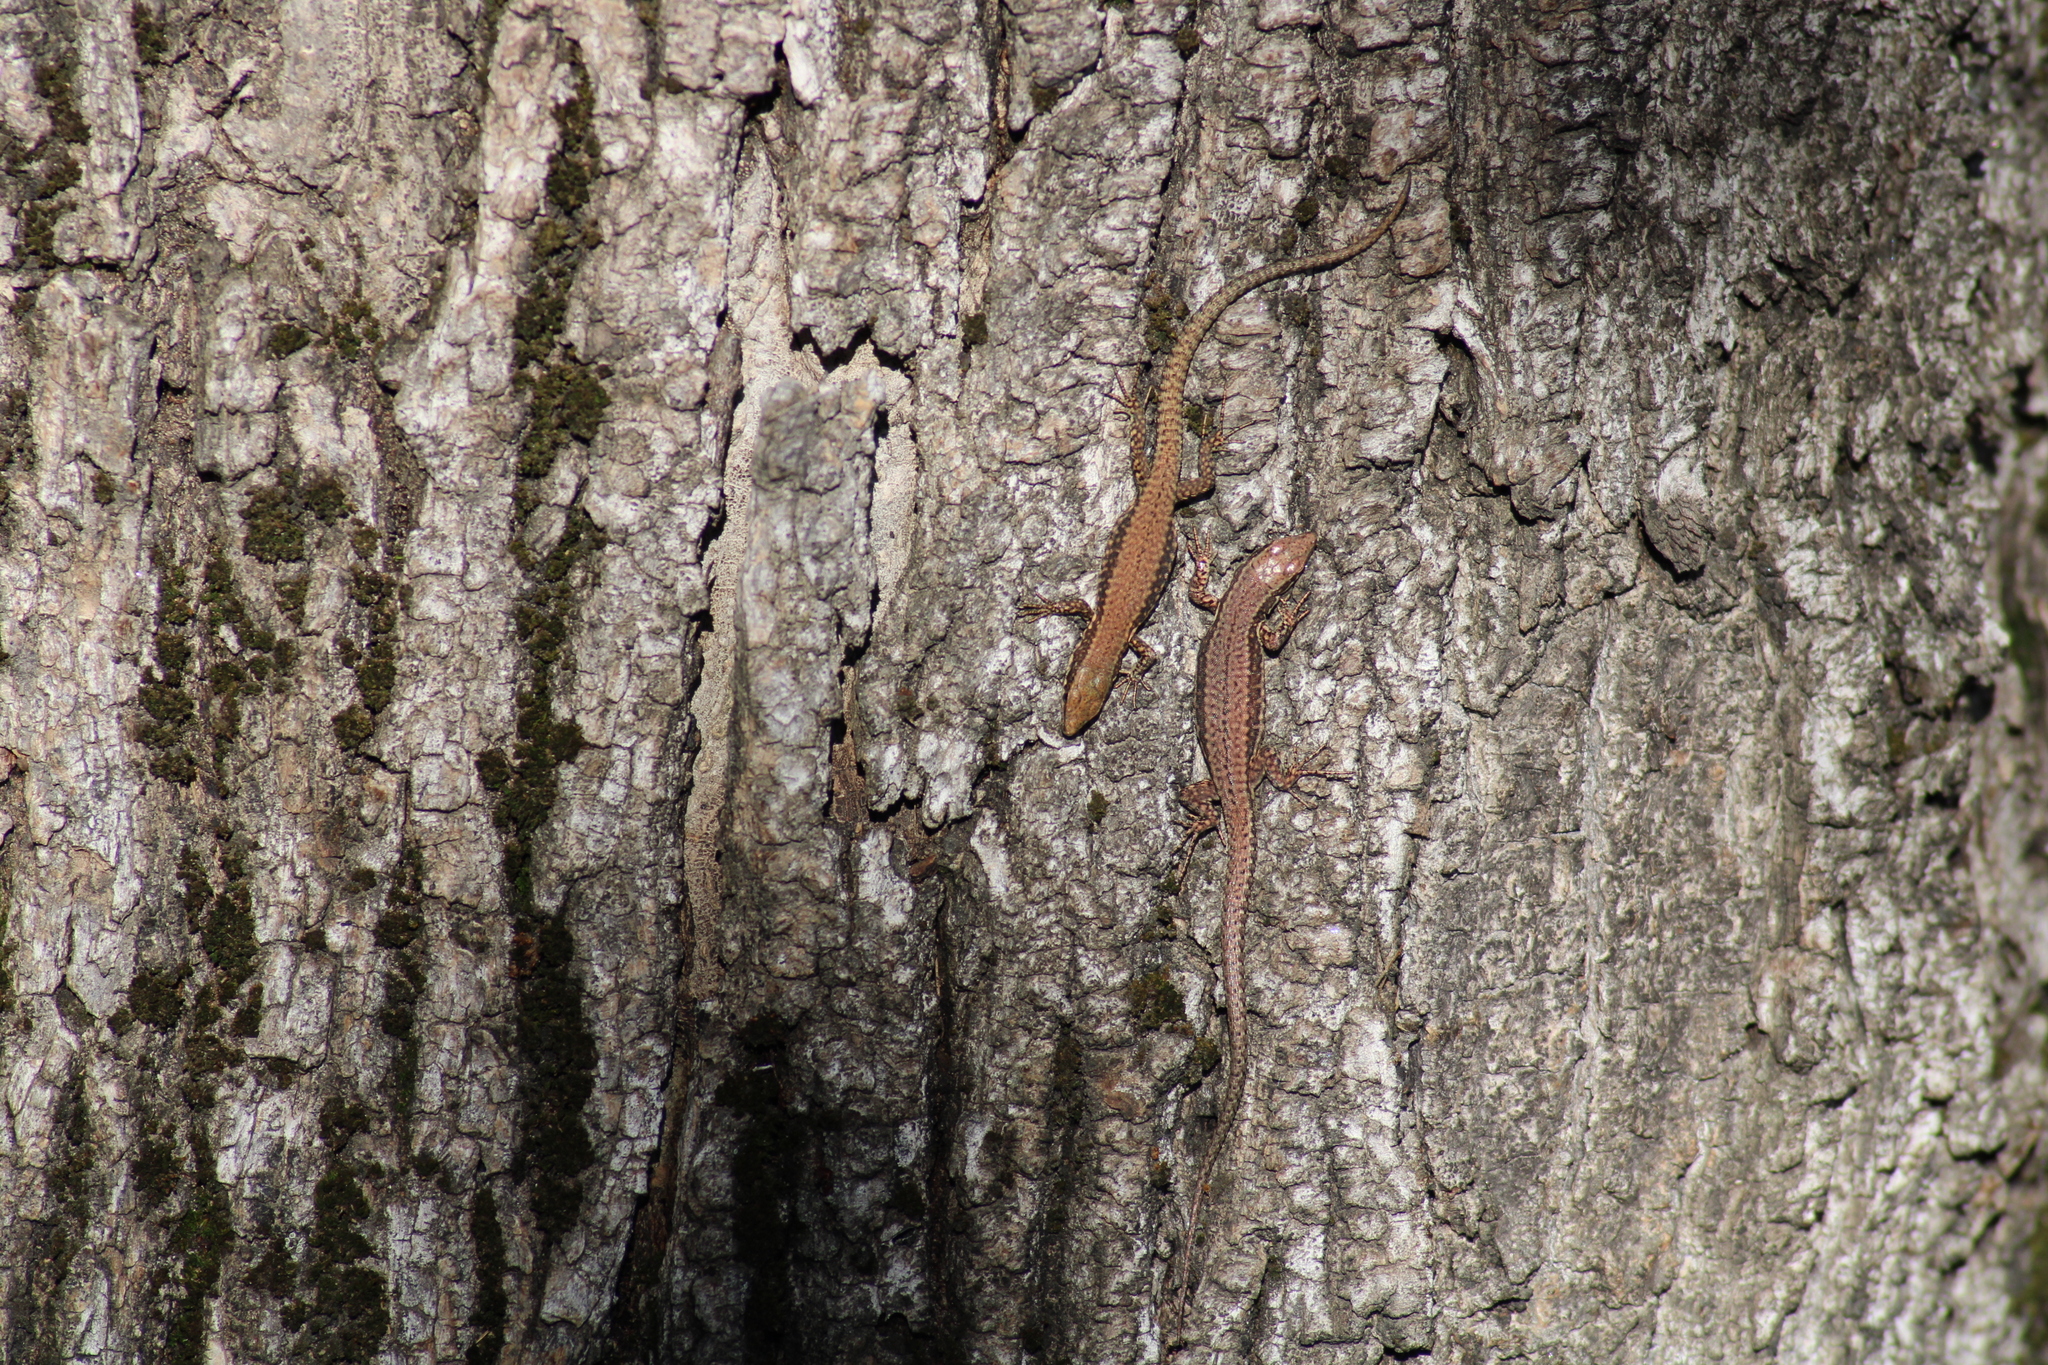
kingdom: Animalia
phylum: Chordata
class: Squamata
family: Lacertidae
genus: Podarcis
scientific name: Podarcis muralis
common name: Common wall lizard
